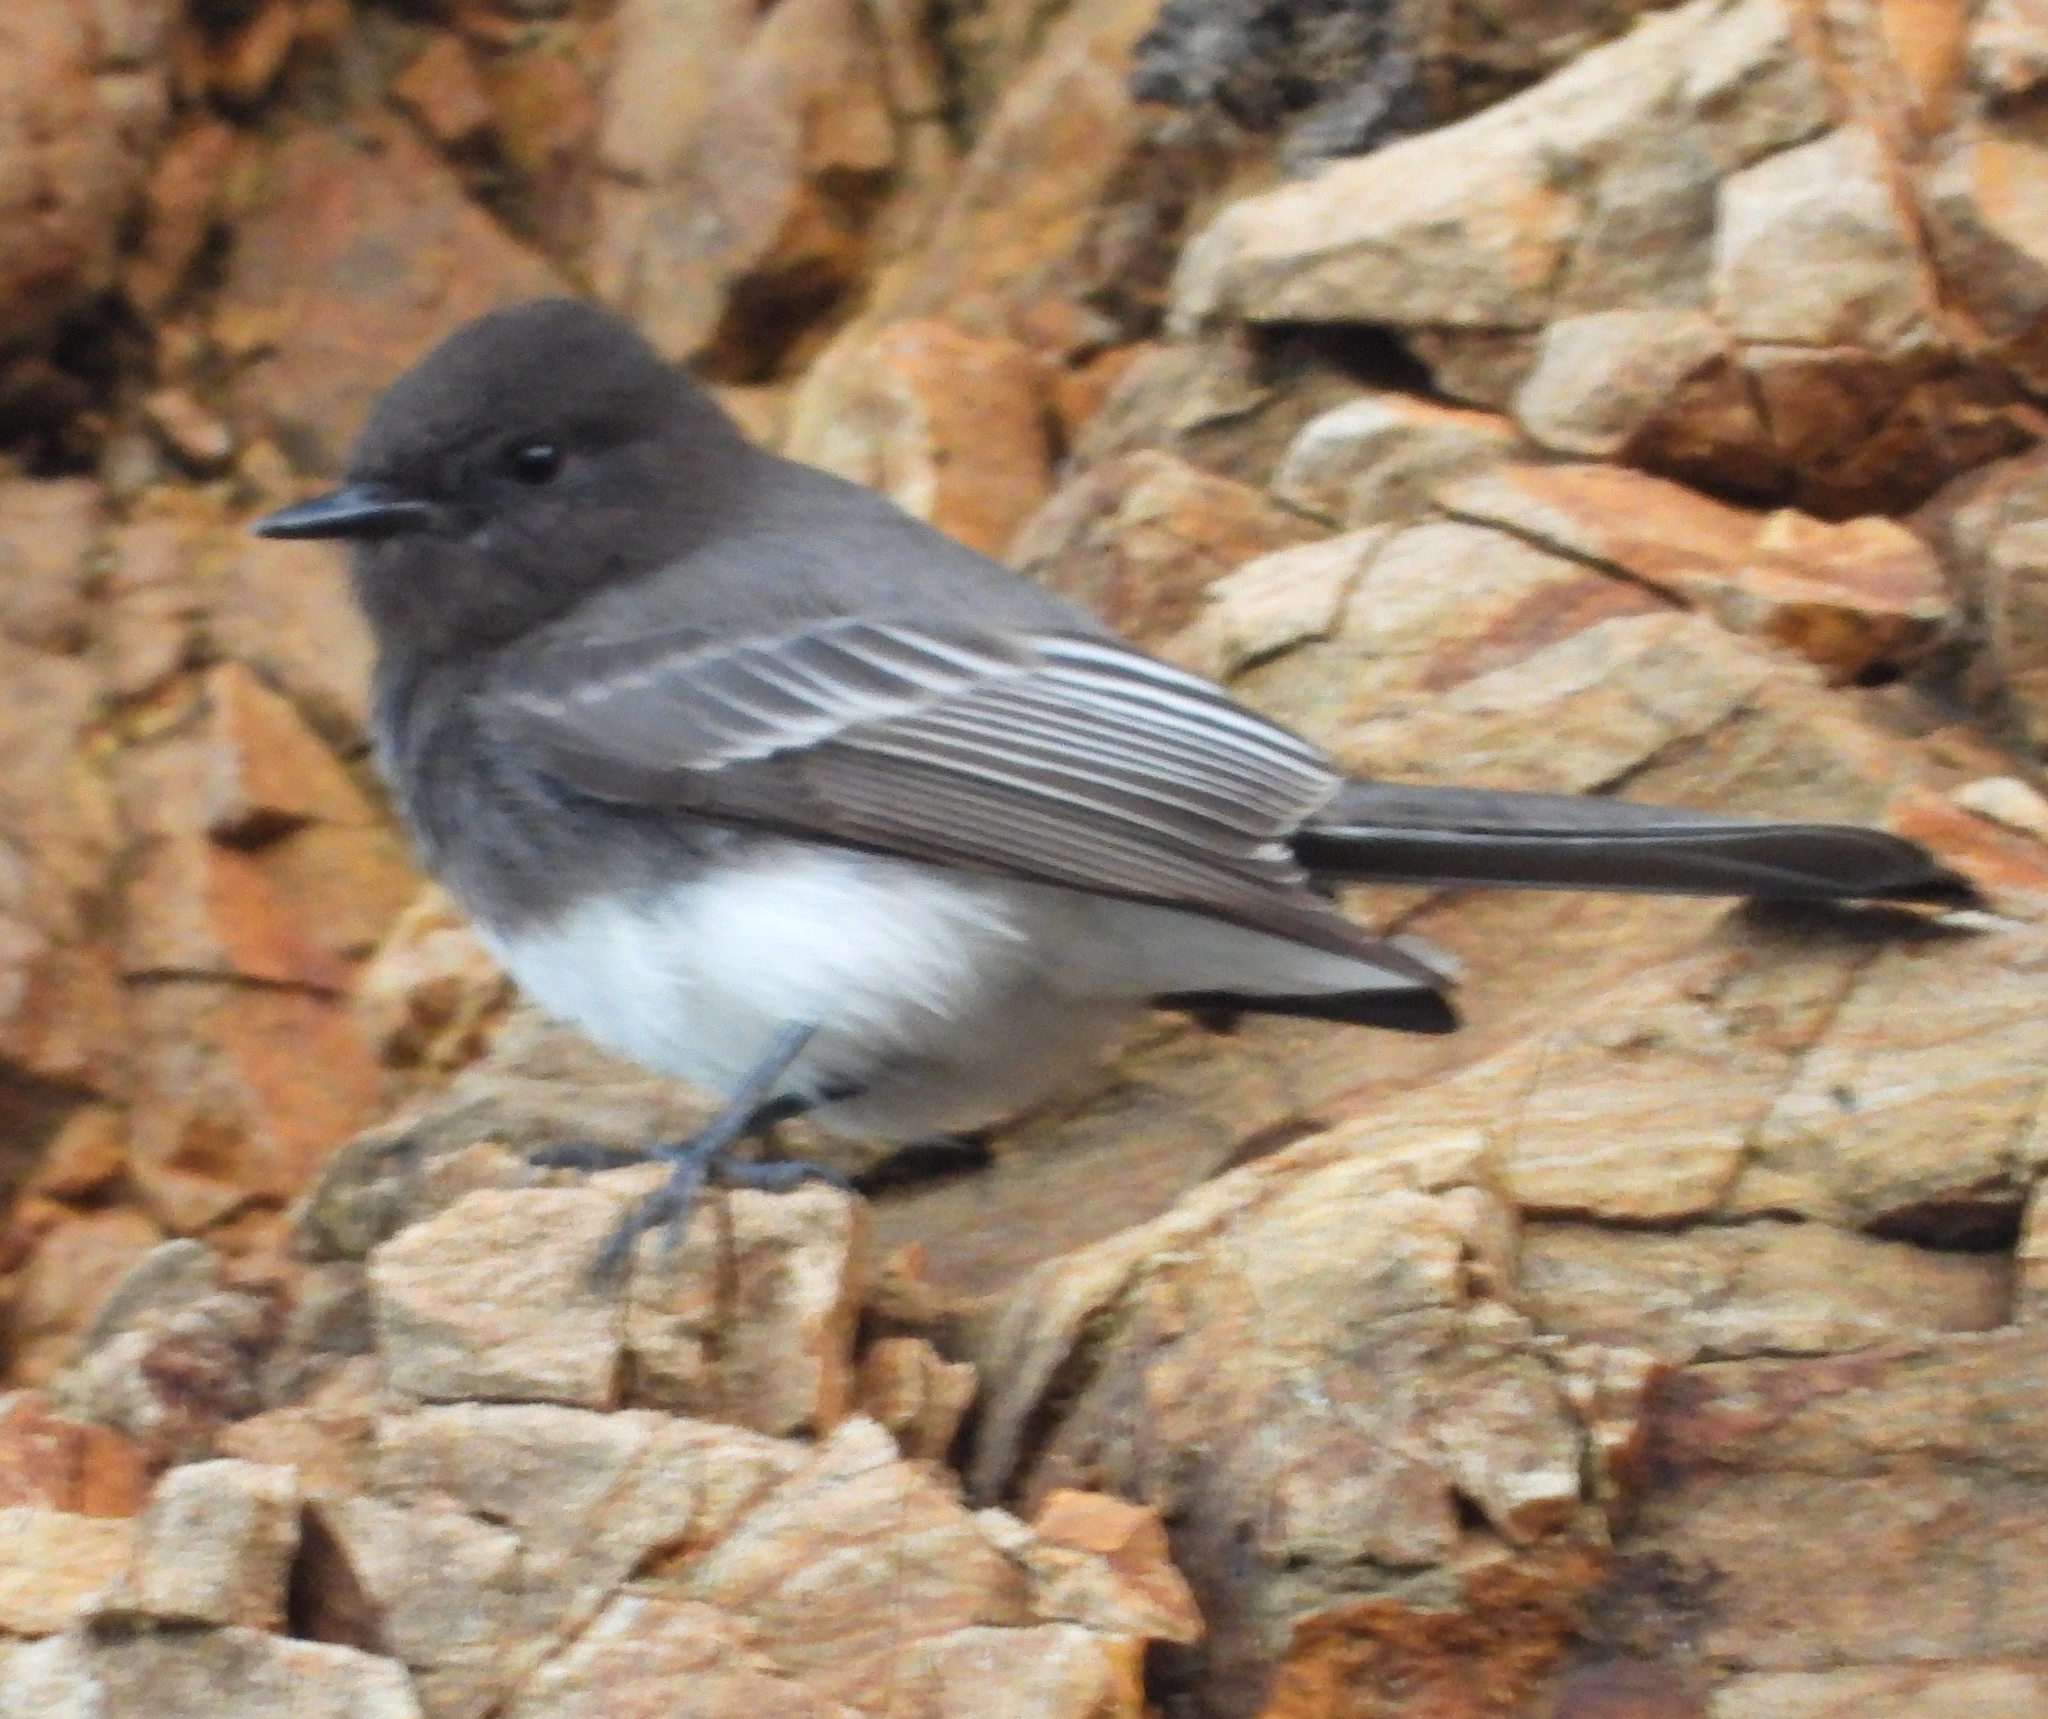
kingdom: Animalia
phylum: Chordata
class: Aves
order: Passeriformes
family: Tyrannidae
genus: Sayornis
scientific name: Sayornis nigricans
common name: Black phoebe
